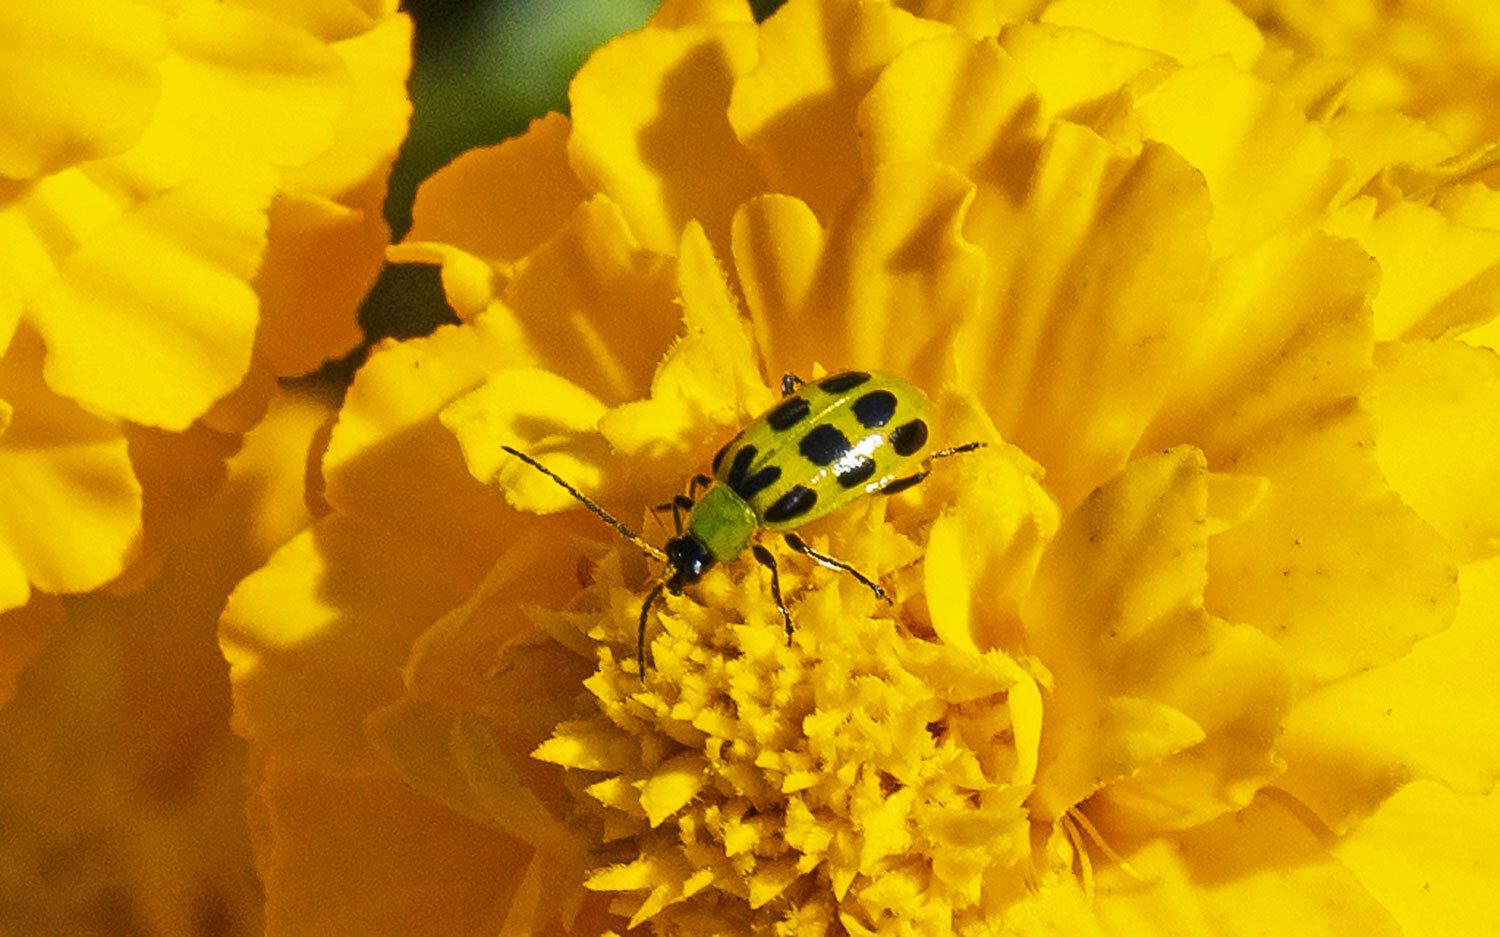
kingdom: Animalia
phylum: Arthropoda
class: Insecta
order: Coleoptera
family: Chrysomelidae
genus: Diabrotica
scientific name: Diabrotica undecimpunctata
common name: Spotted cucumber beetle
